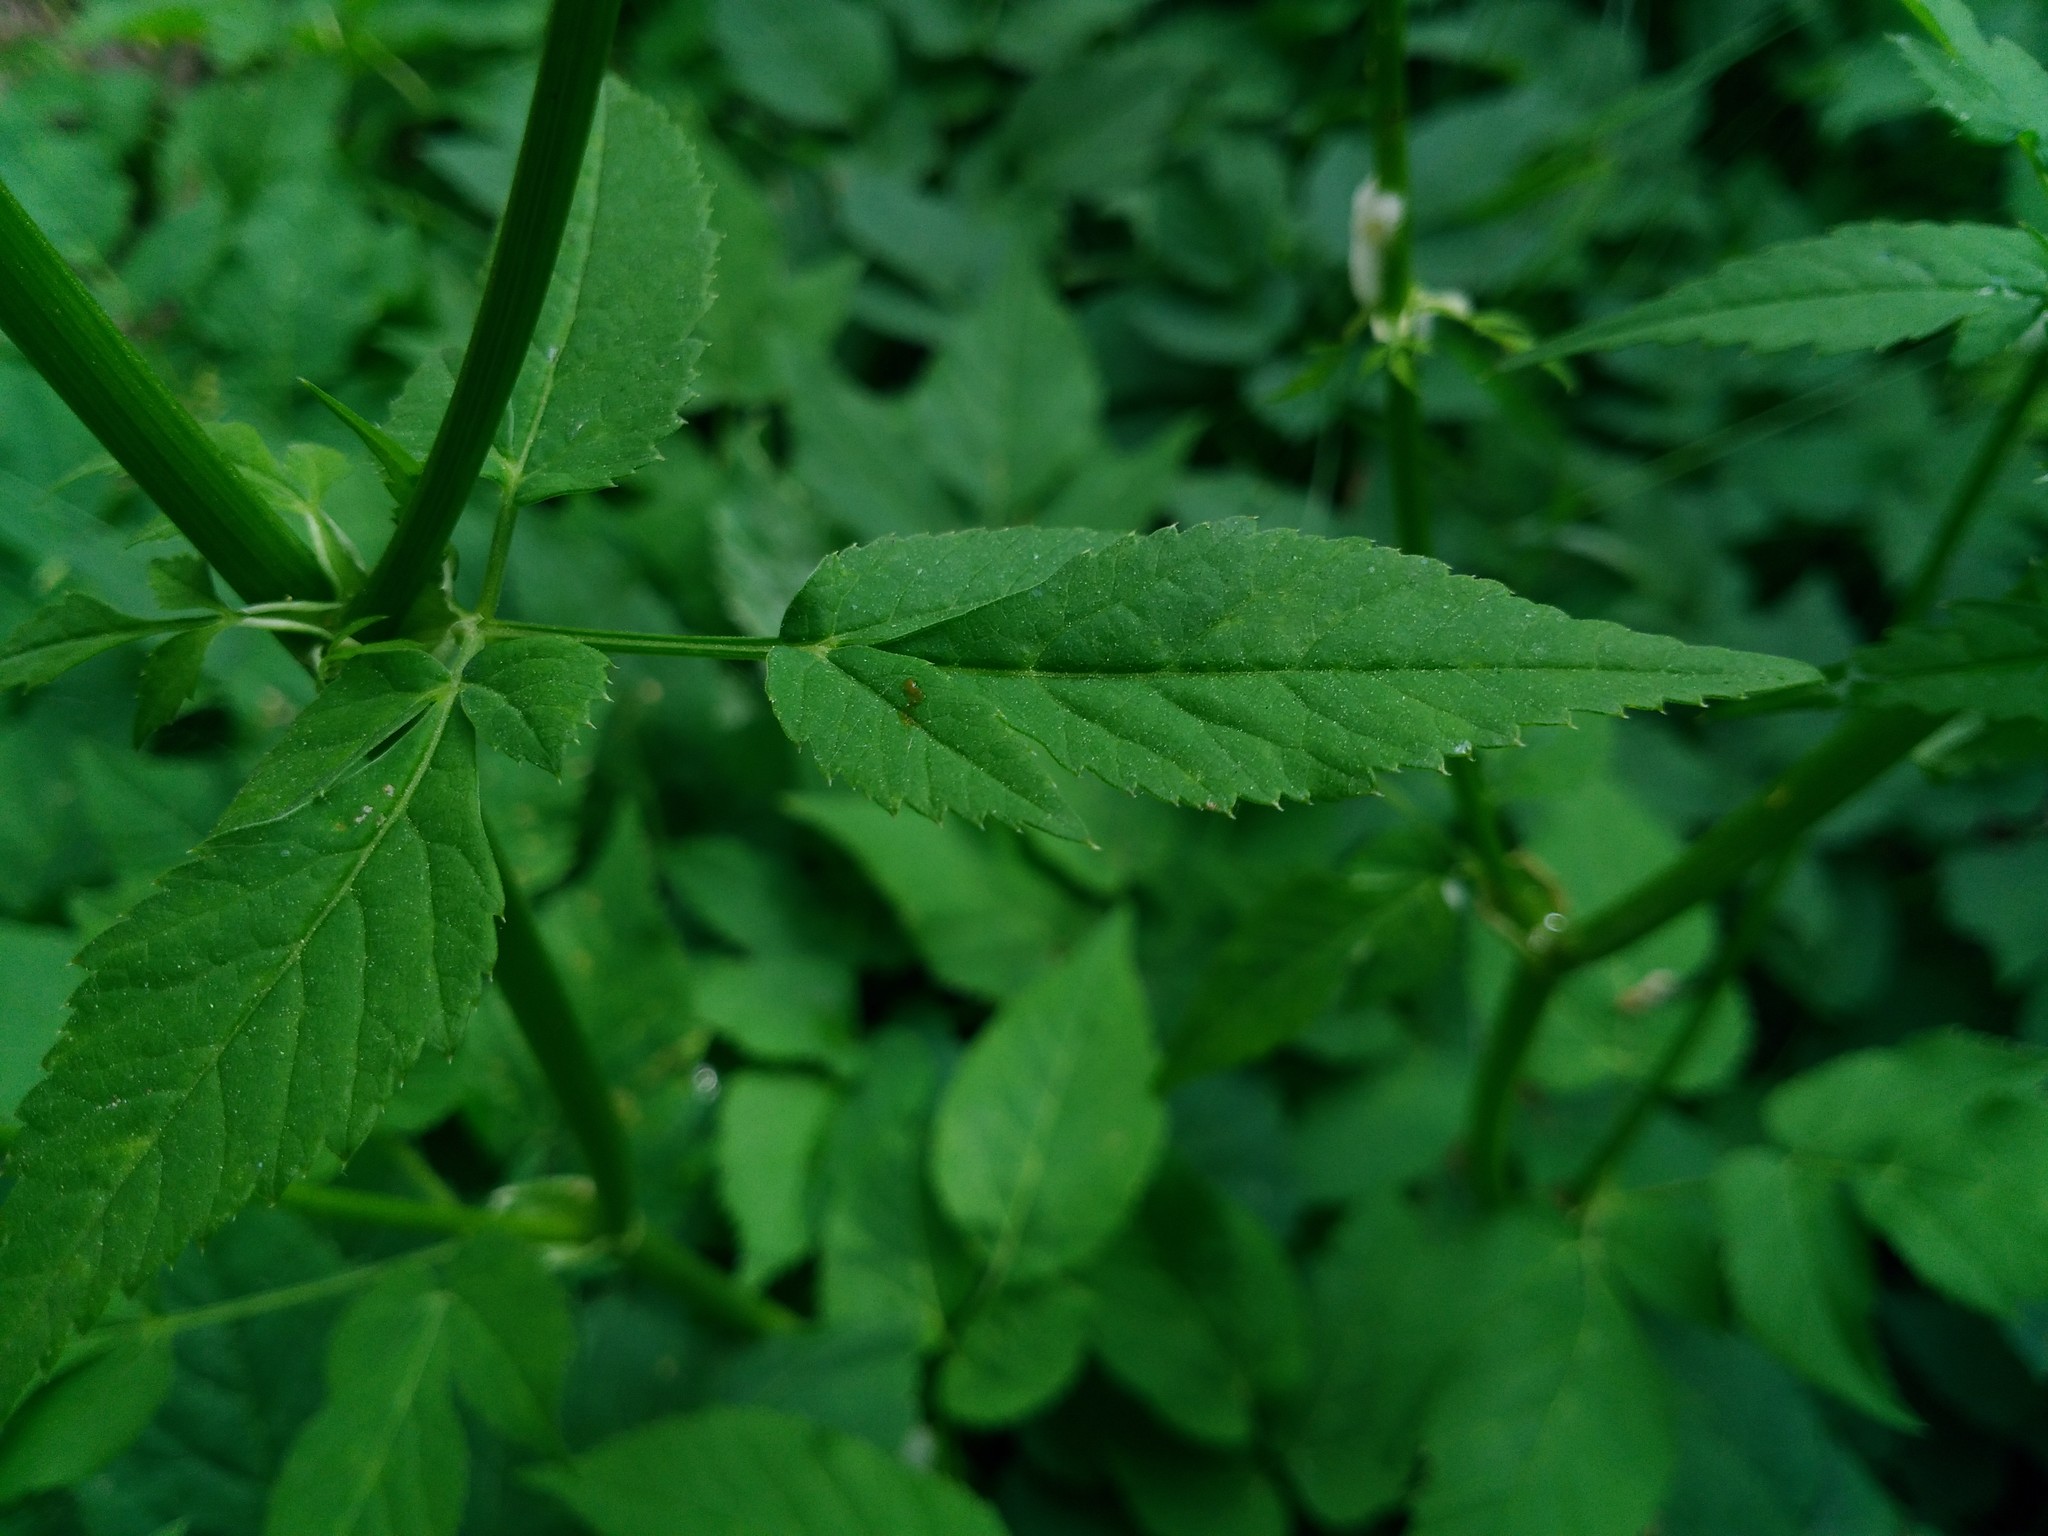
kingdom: Plantae
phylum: Tracheophyta
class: Magnoliopsida
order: Apiales
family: Apiaceae
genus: Aegopodium
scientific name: Aegopodium podagraria
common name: Ground-elder
